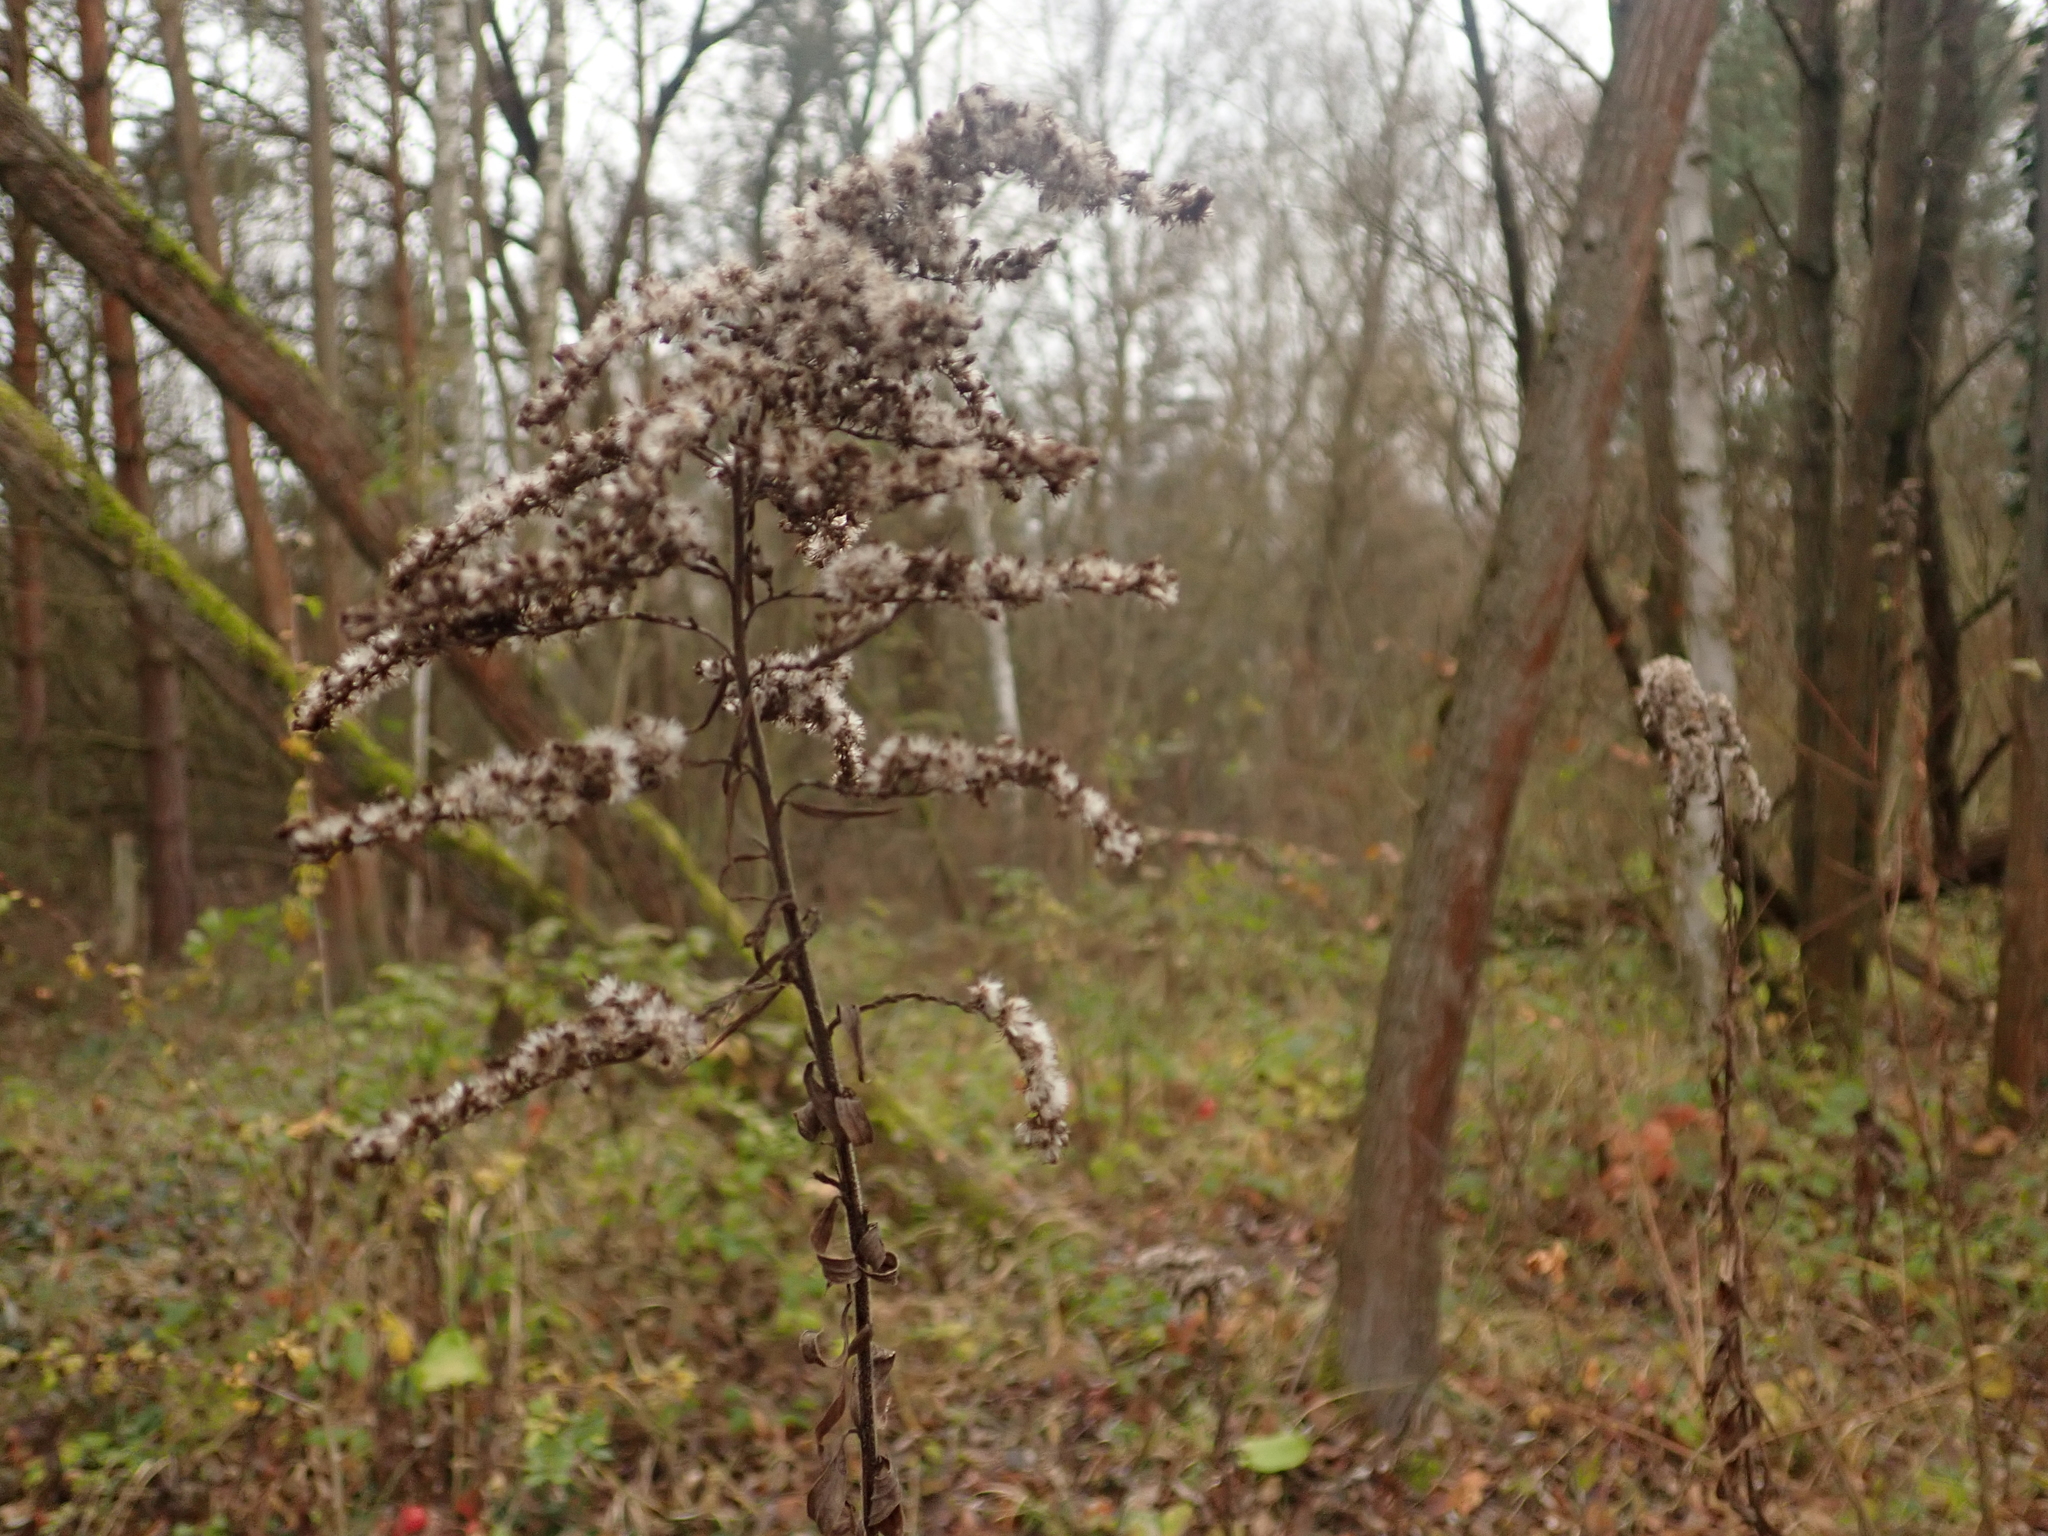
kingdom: Plantae
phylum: Tracheophyta
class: Magnoliopsida
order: Asterales
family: Asteraceae
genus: Solidago
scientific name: Solidago canadensis
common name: Canada goldenrod
